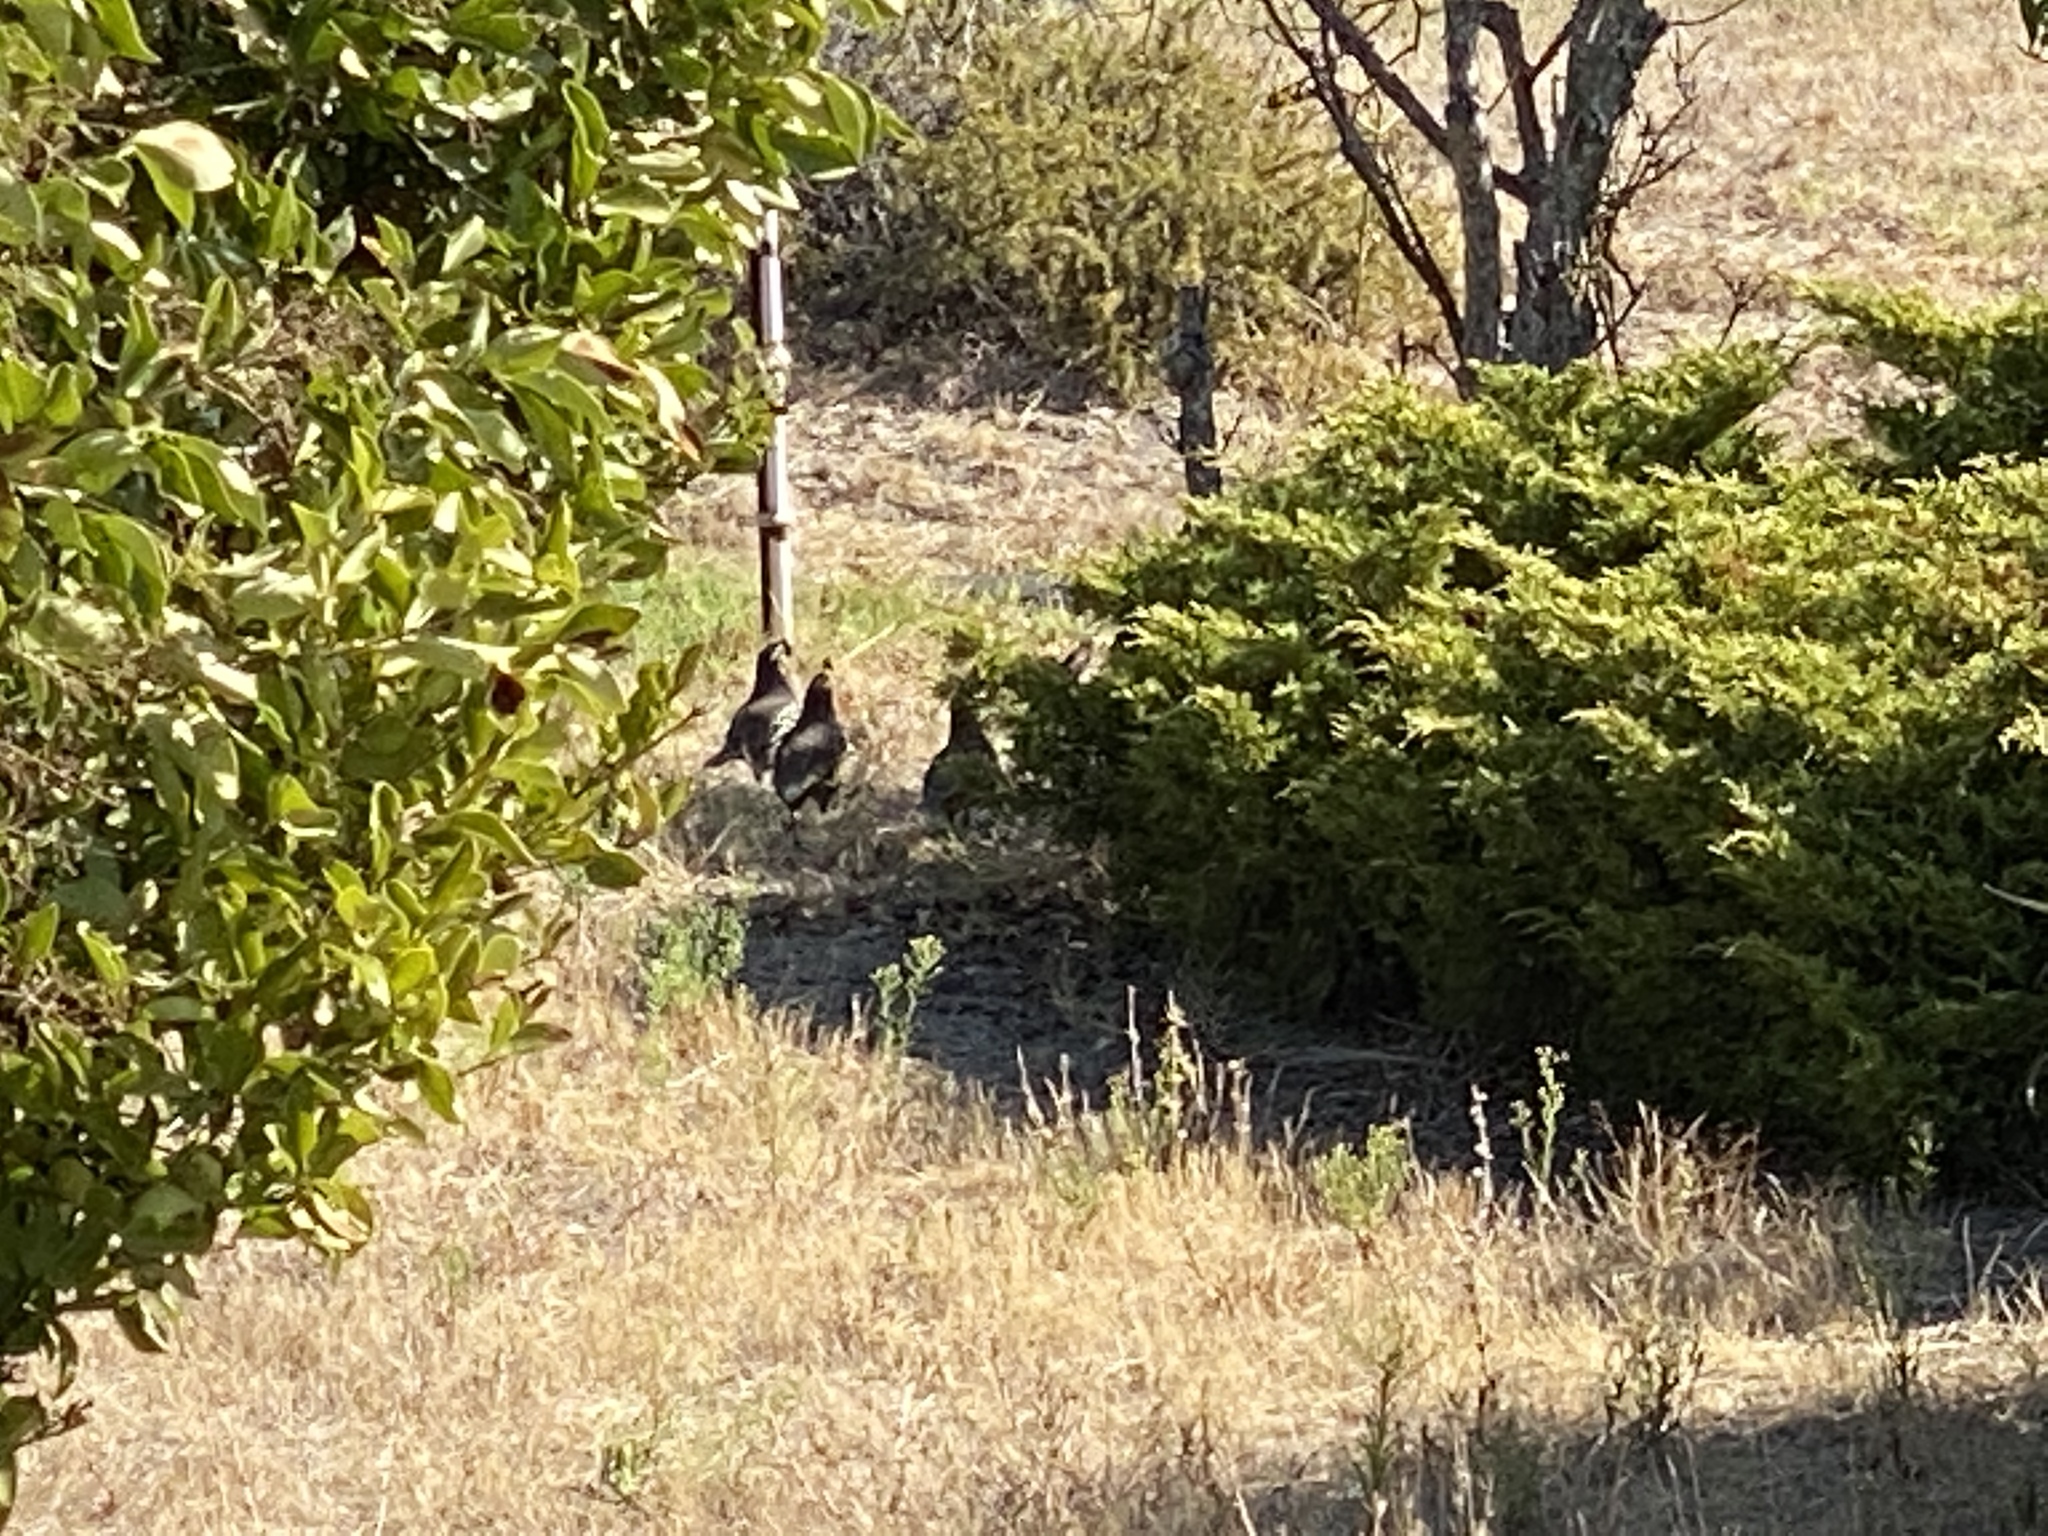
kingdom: Animalia
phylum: Chordata
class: Aves
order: Galliformes
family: Odontophoridae
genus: Callipepla
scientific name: Callipepla californica
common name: California quail
